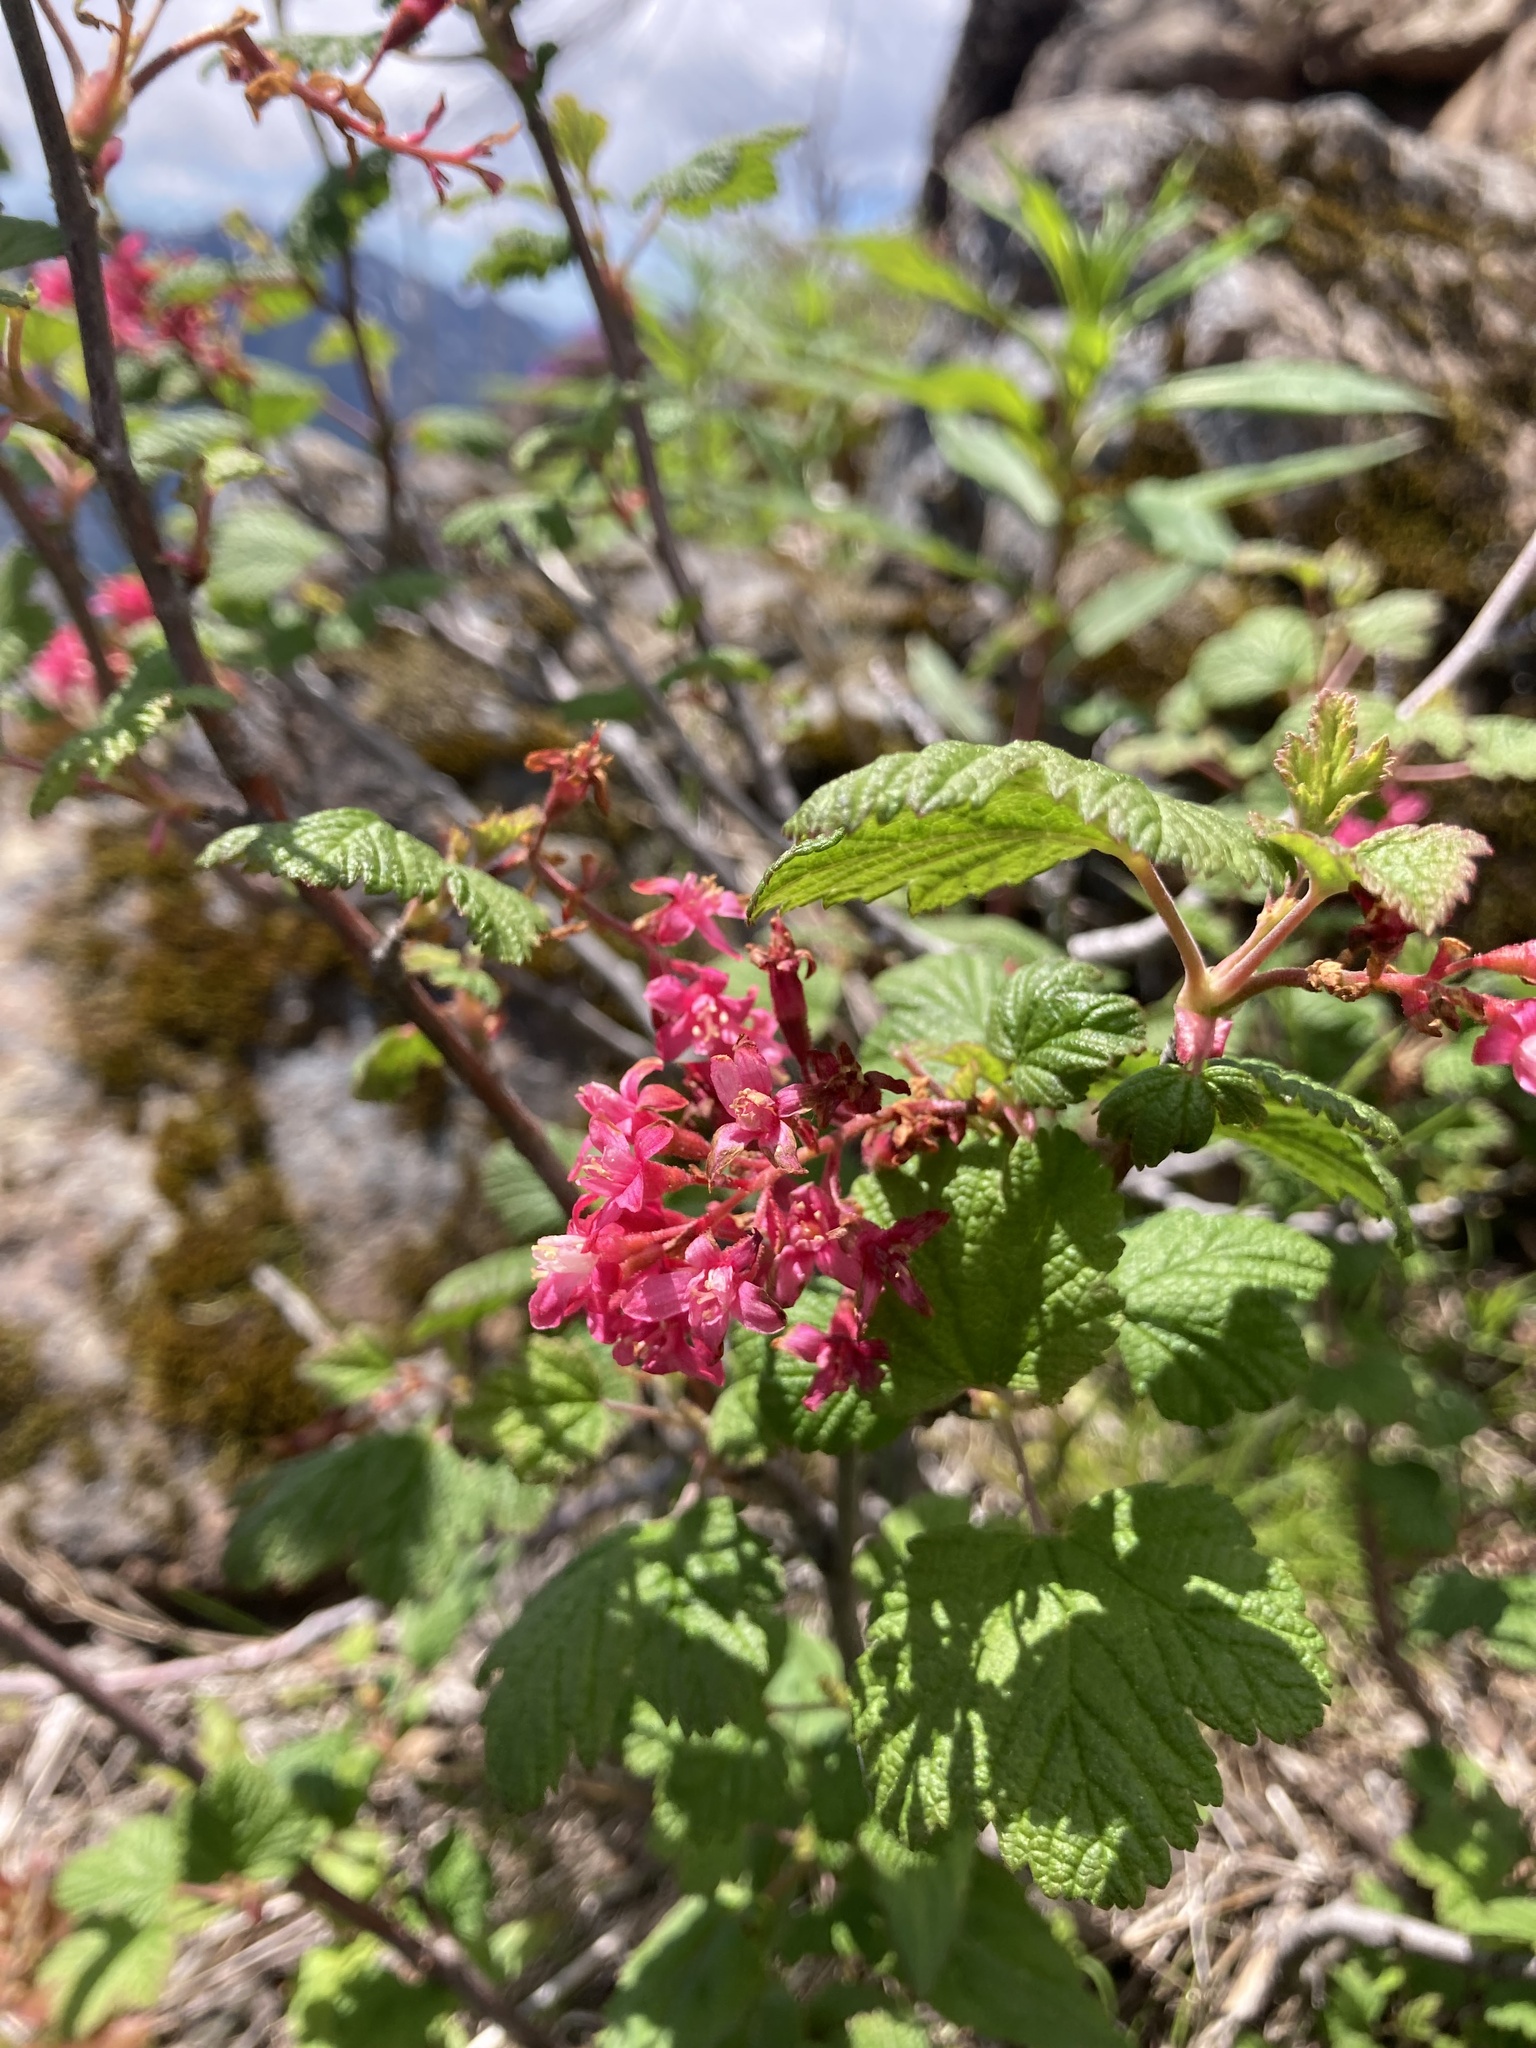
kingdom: Plantae
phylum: Tracheophyta
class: Magnoliopsida
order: Saxifragales
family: Grossulariaceae
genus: Ribes
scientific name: Ribes sanguineum
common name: Flowering currant
